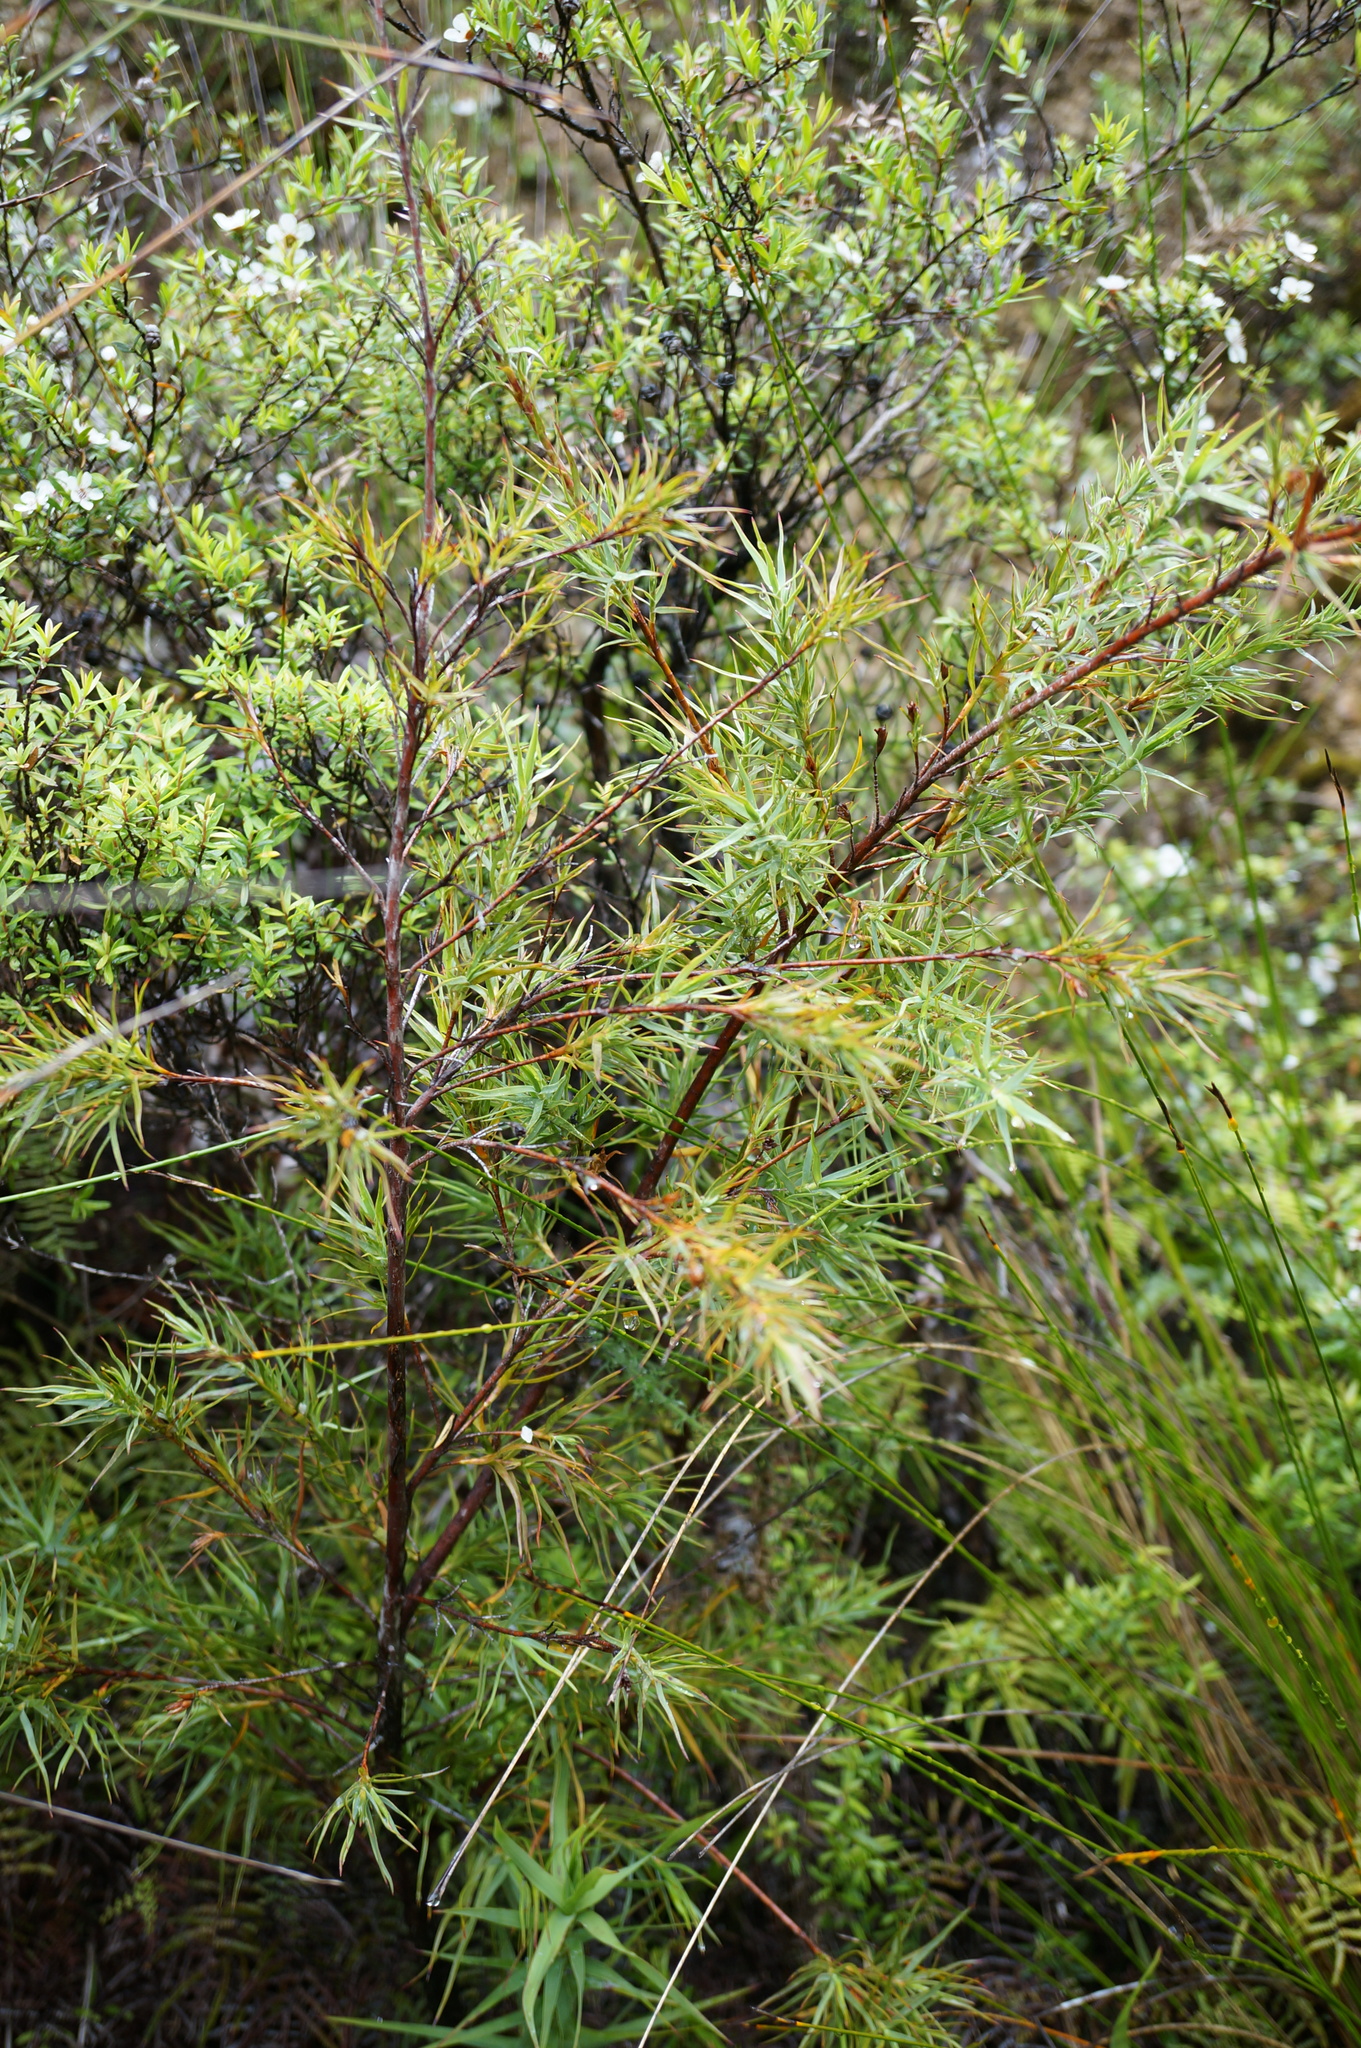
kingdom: Plantae
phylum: Tracheophyta
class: Magnoliopsida
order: Ericales
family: Ericaceae
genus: Dracophyllum
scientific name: Dracophyllum trimorphum
